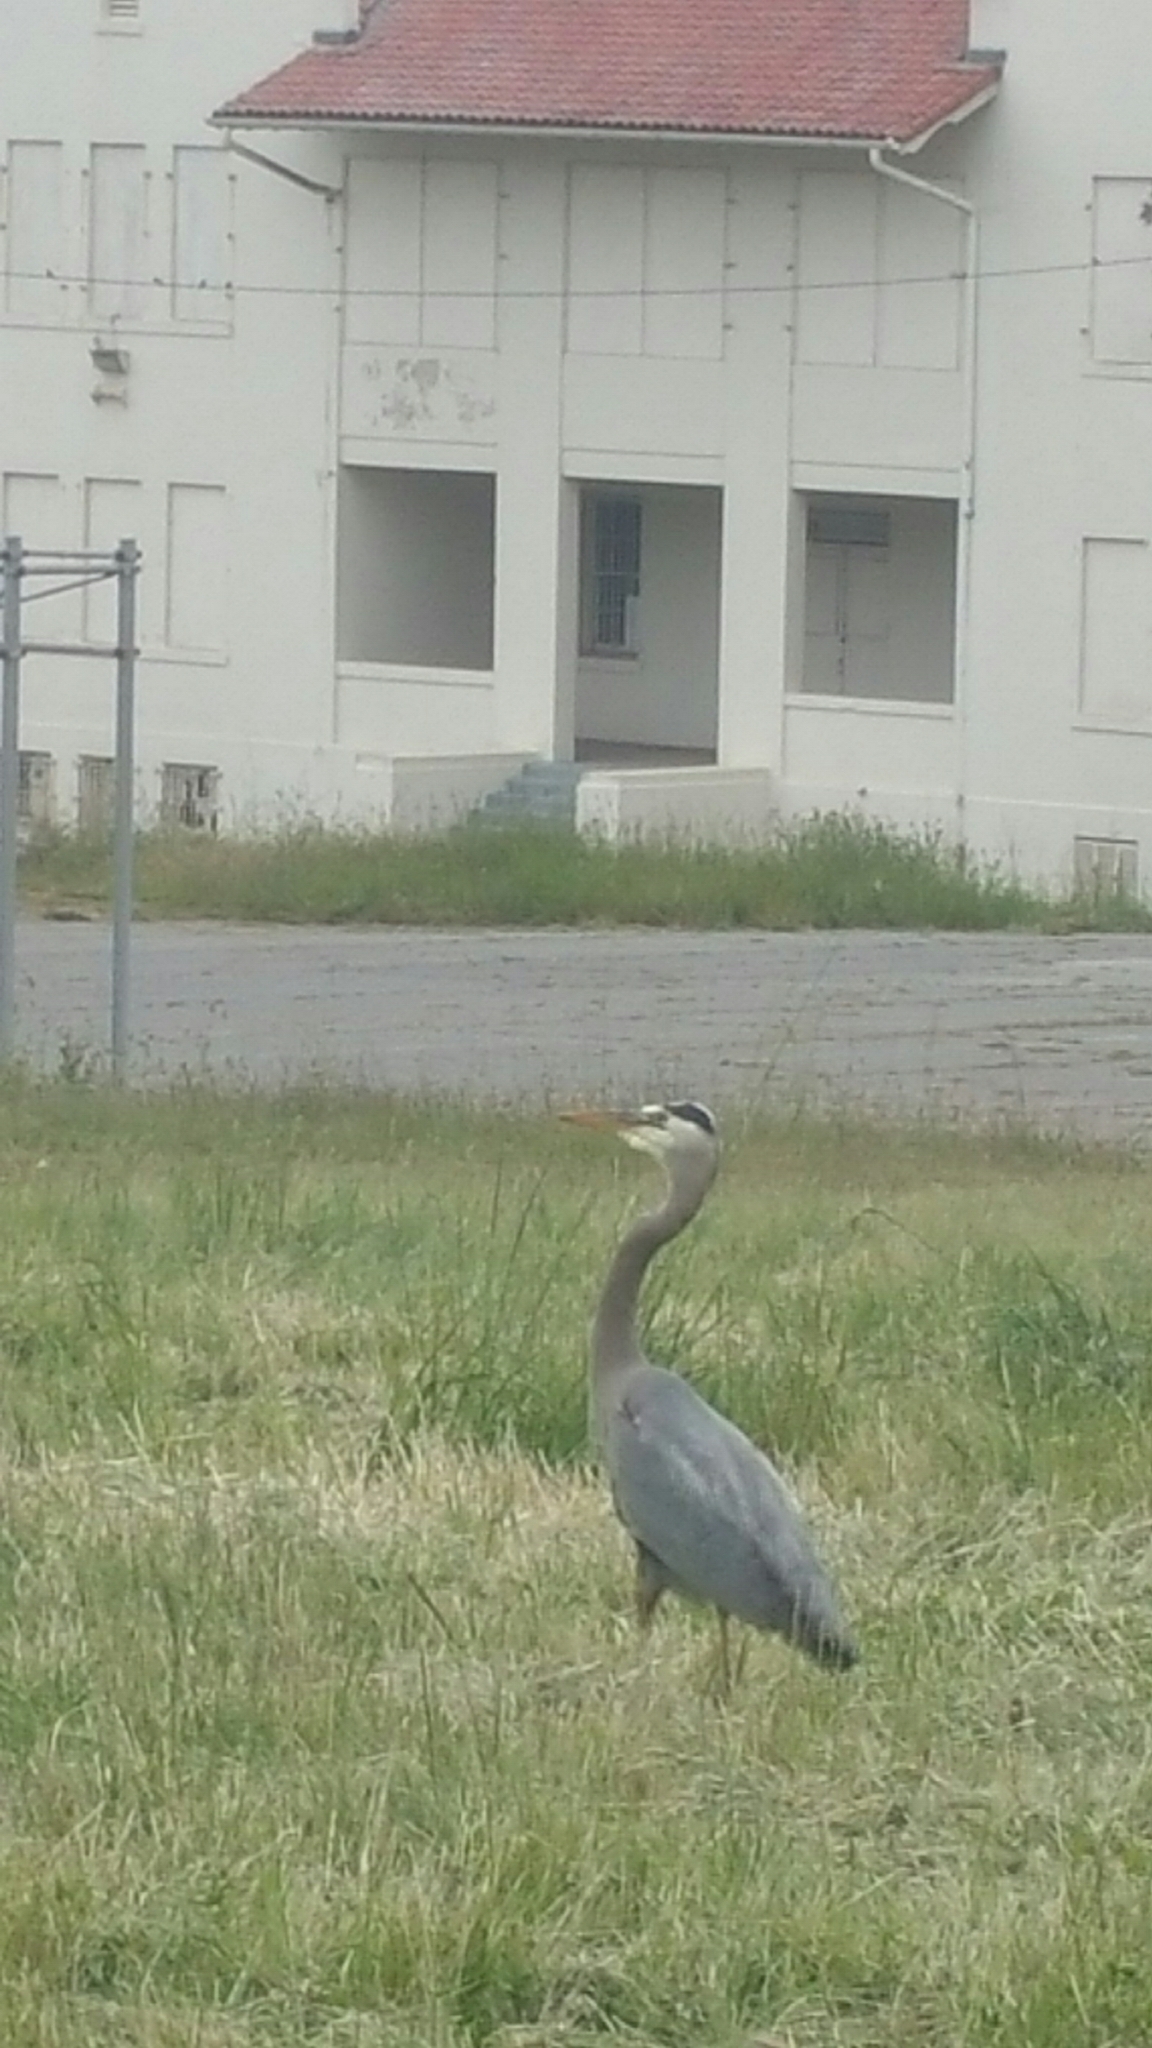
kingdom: Animalia
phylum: Chordata
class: Aves
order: Pelecaniformes
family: Ardeidae
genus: Ardea
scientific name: Ardea herodias
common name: Great blue heron
